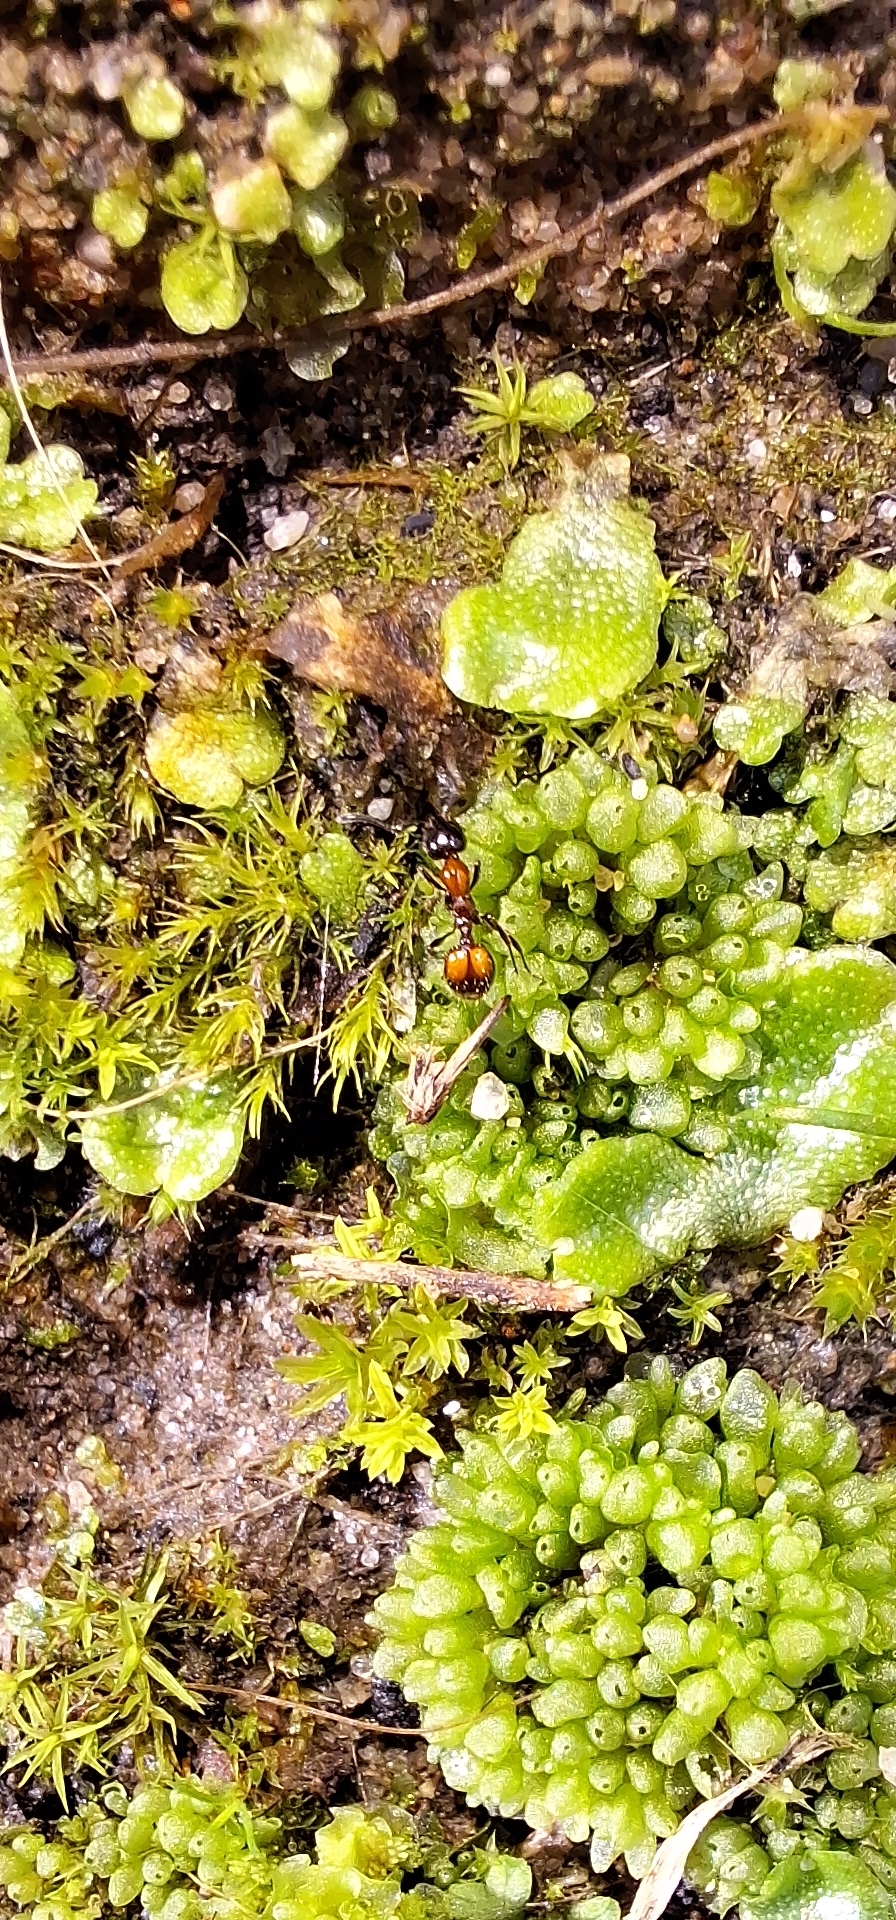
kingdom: Animalia
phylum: Arthropoda
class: Insecta
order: Hymenoptera
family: Formicidae
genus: Chelaner
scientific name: Chelaner
